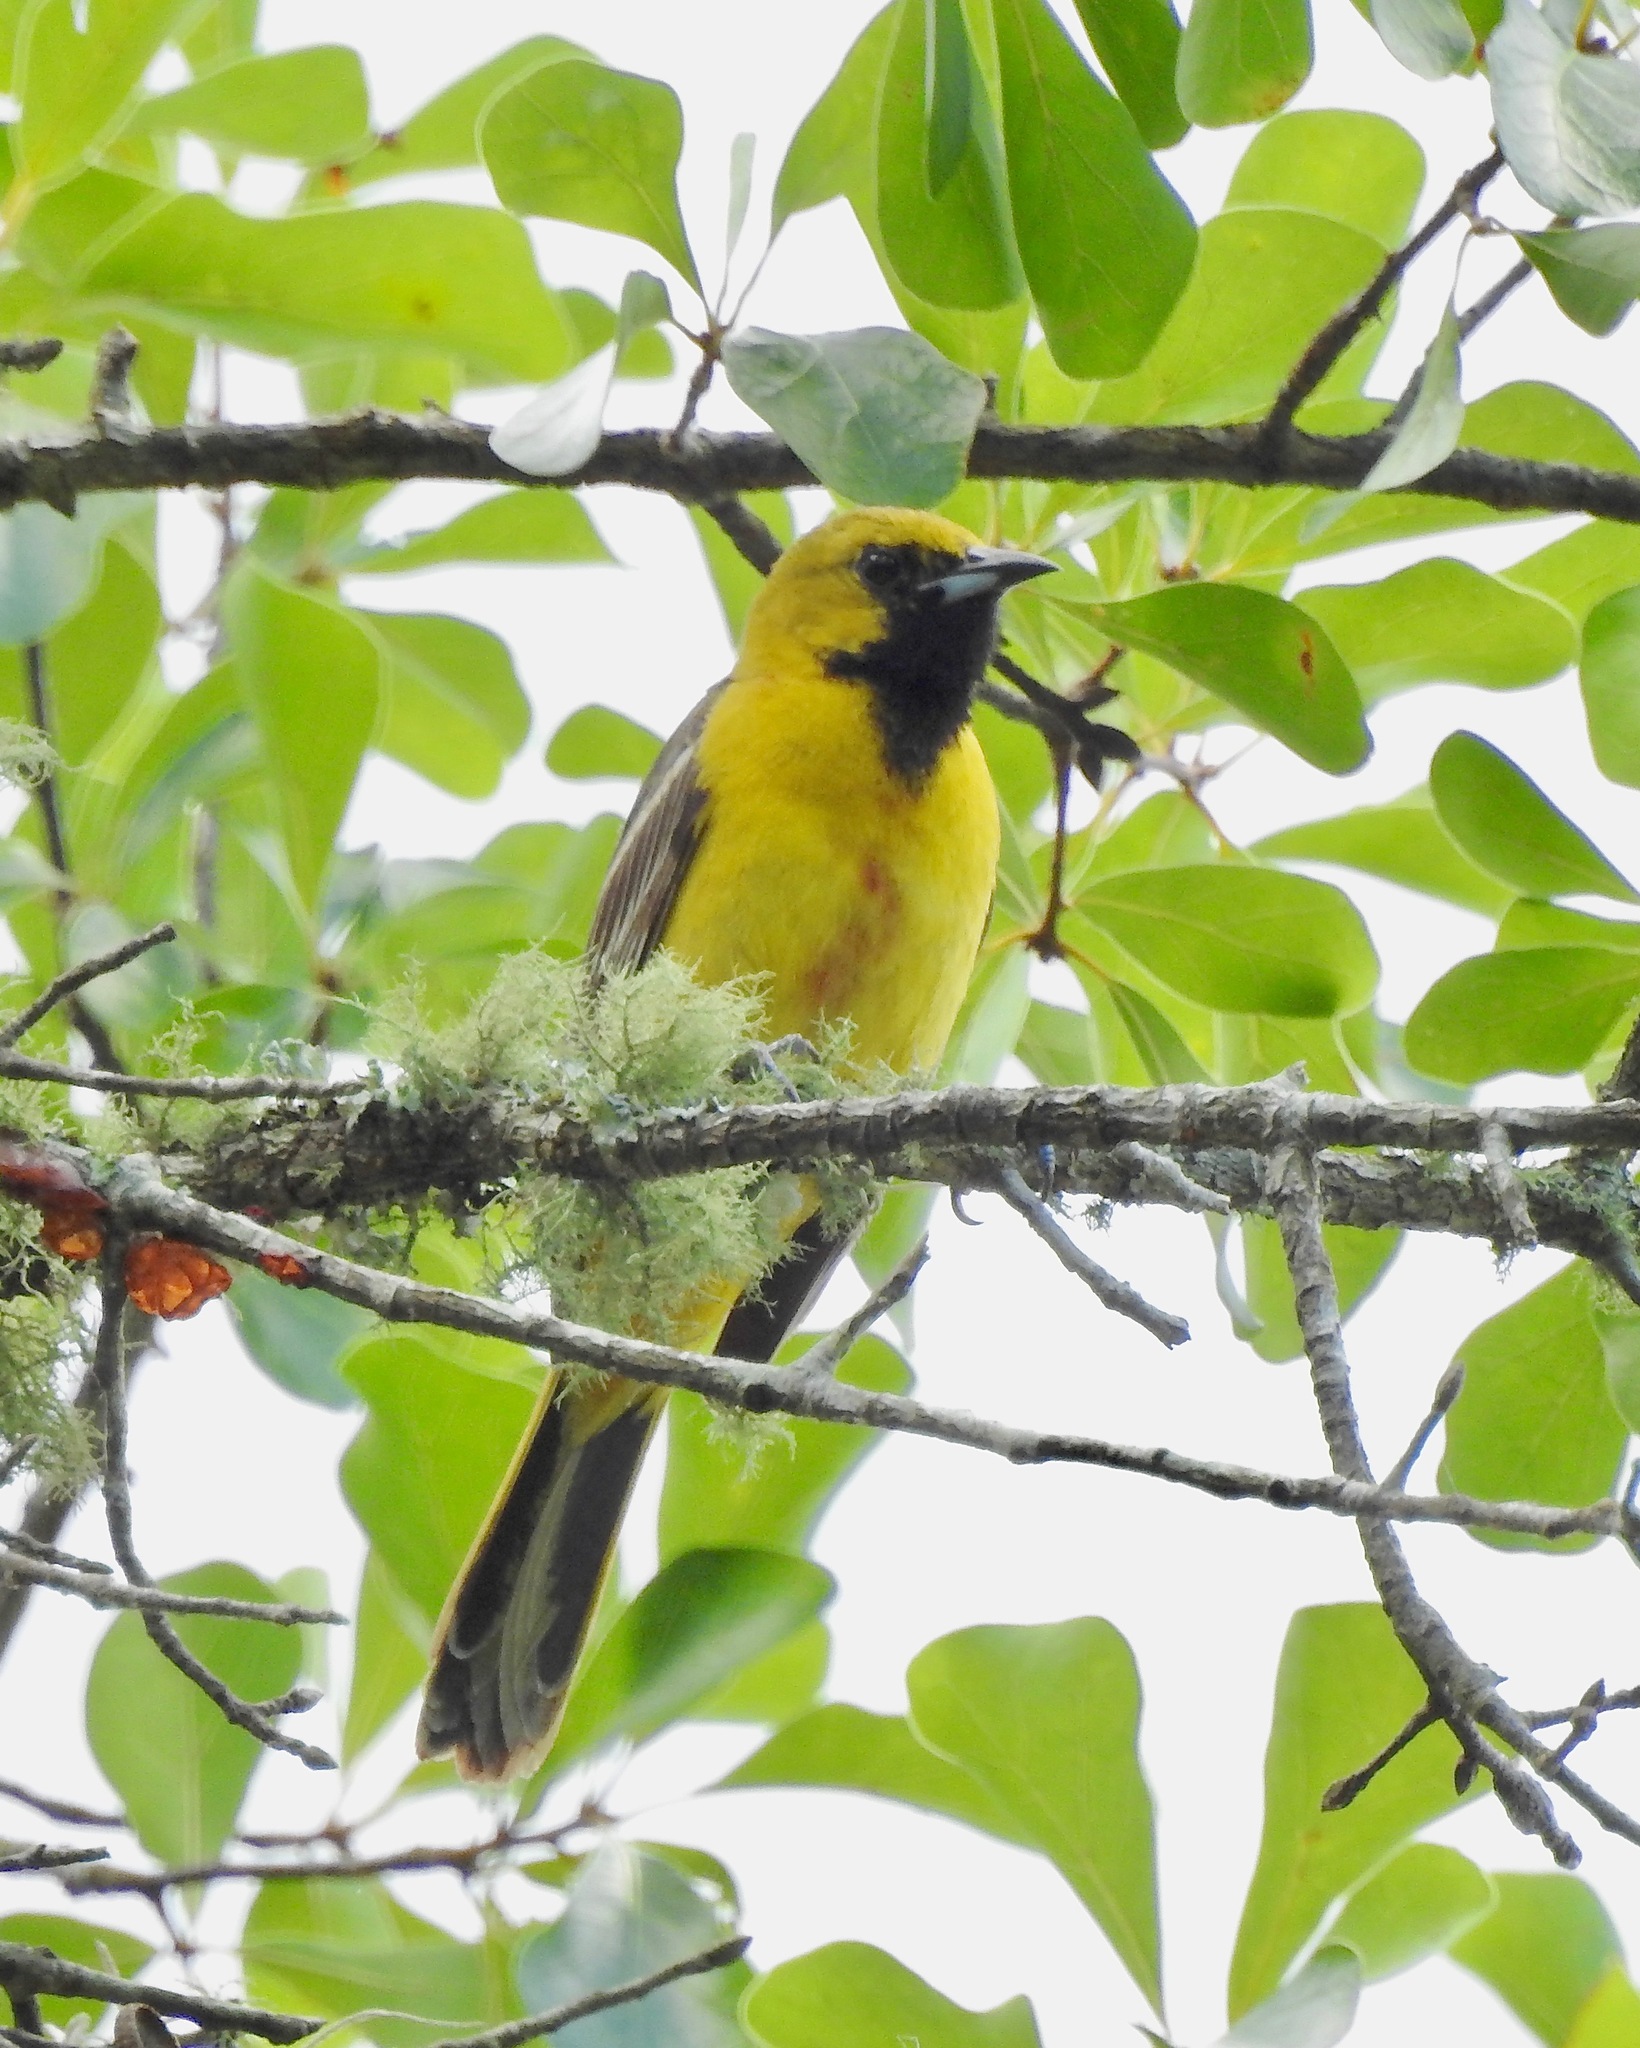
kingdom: Animalia
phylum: Chordata
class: Aves
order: Passeriformes
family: Icteridae
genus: Icterus
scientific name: Icterus spurius
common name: Orchard oriole
